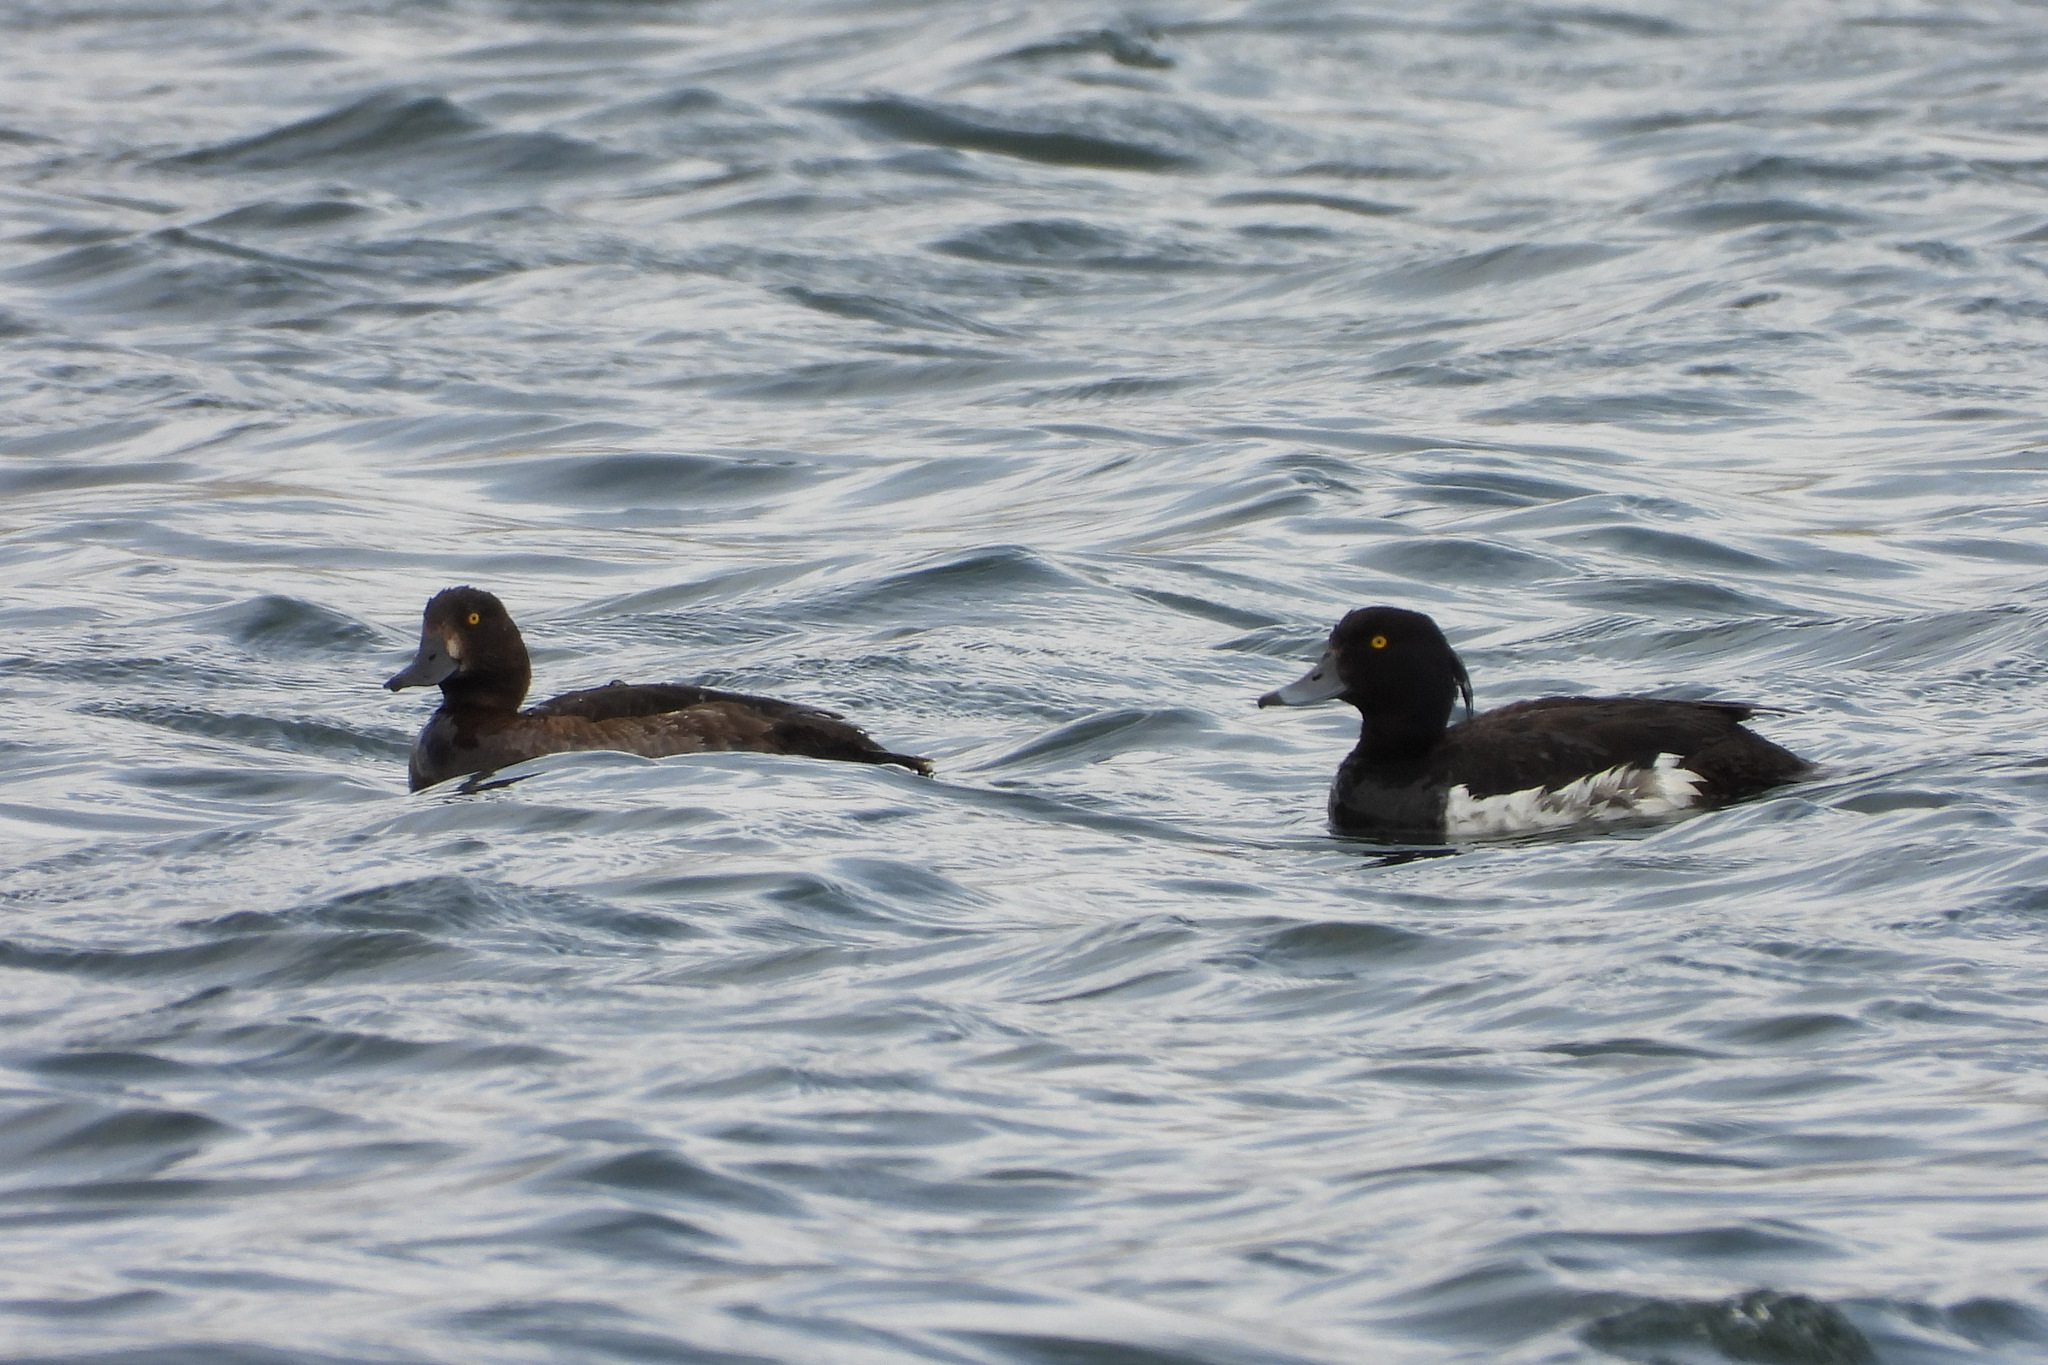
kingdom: Animalia
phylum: Chordata
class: Aves
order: Anseriformes
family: Anatidae
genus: Aythya
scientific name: Aythya fuligula
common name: Tufted duck
